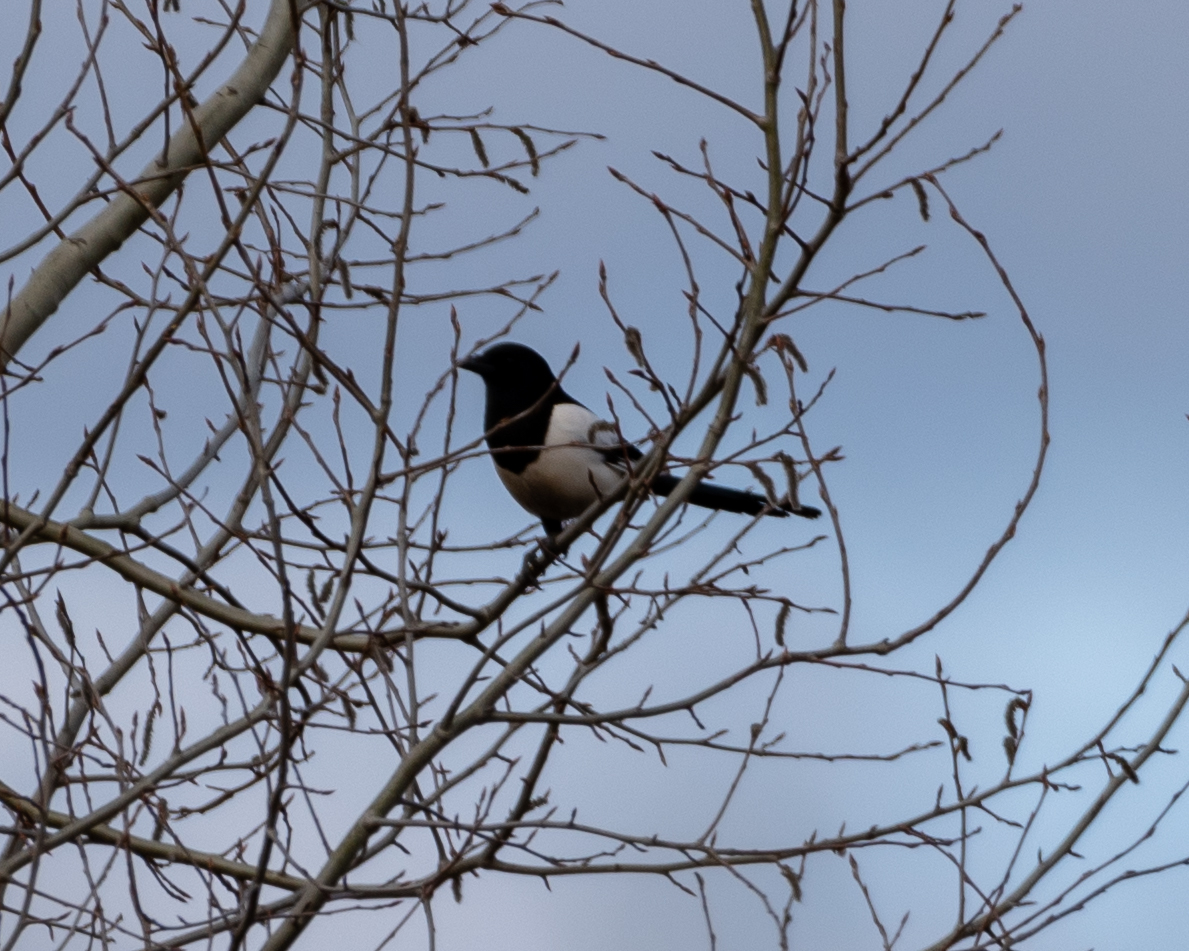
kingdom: Animalia
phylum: Chordata
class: Aves
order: Passeriformes
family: Corvidae
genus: Pica
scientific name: Pica pica
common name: Eurasian magpie
